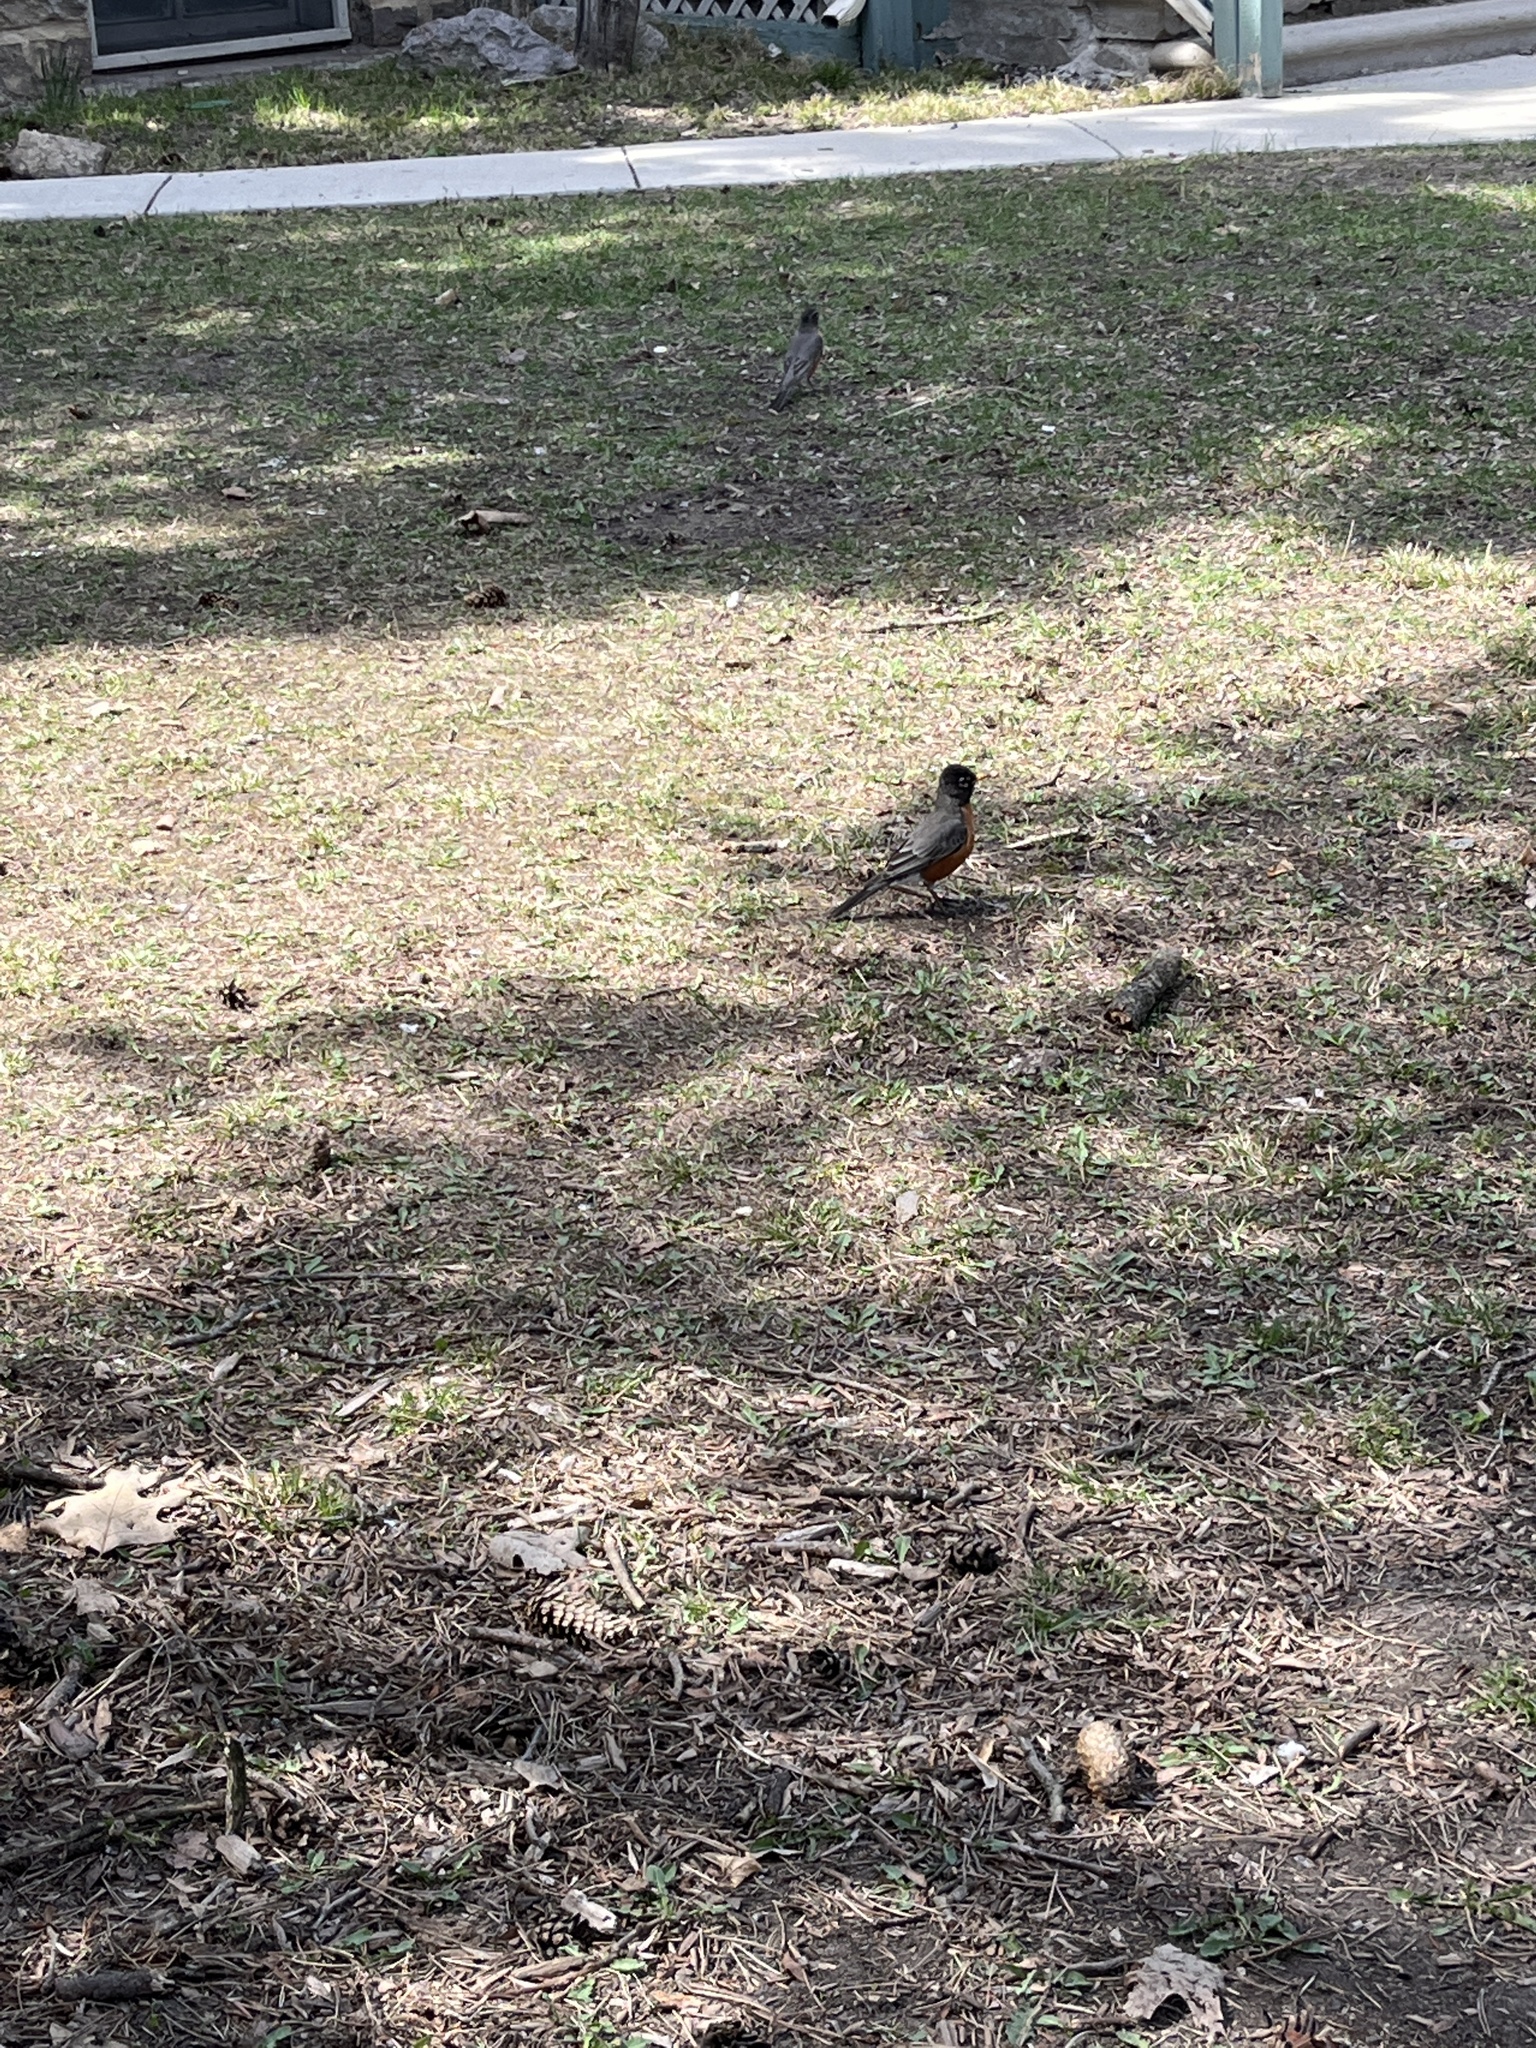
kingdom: Animalia
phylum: Chordata
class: Aves
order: Passeriformes
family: Turdidae
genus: Turdus
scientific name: Turdus migratorius
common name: American robin
